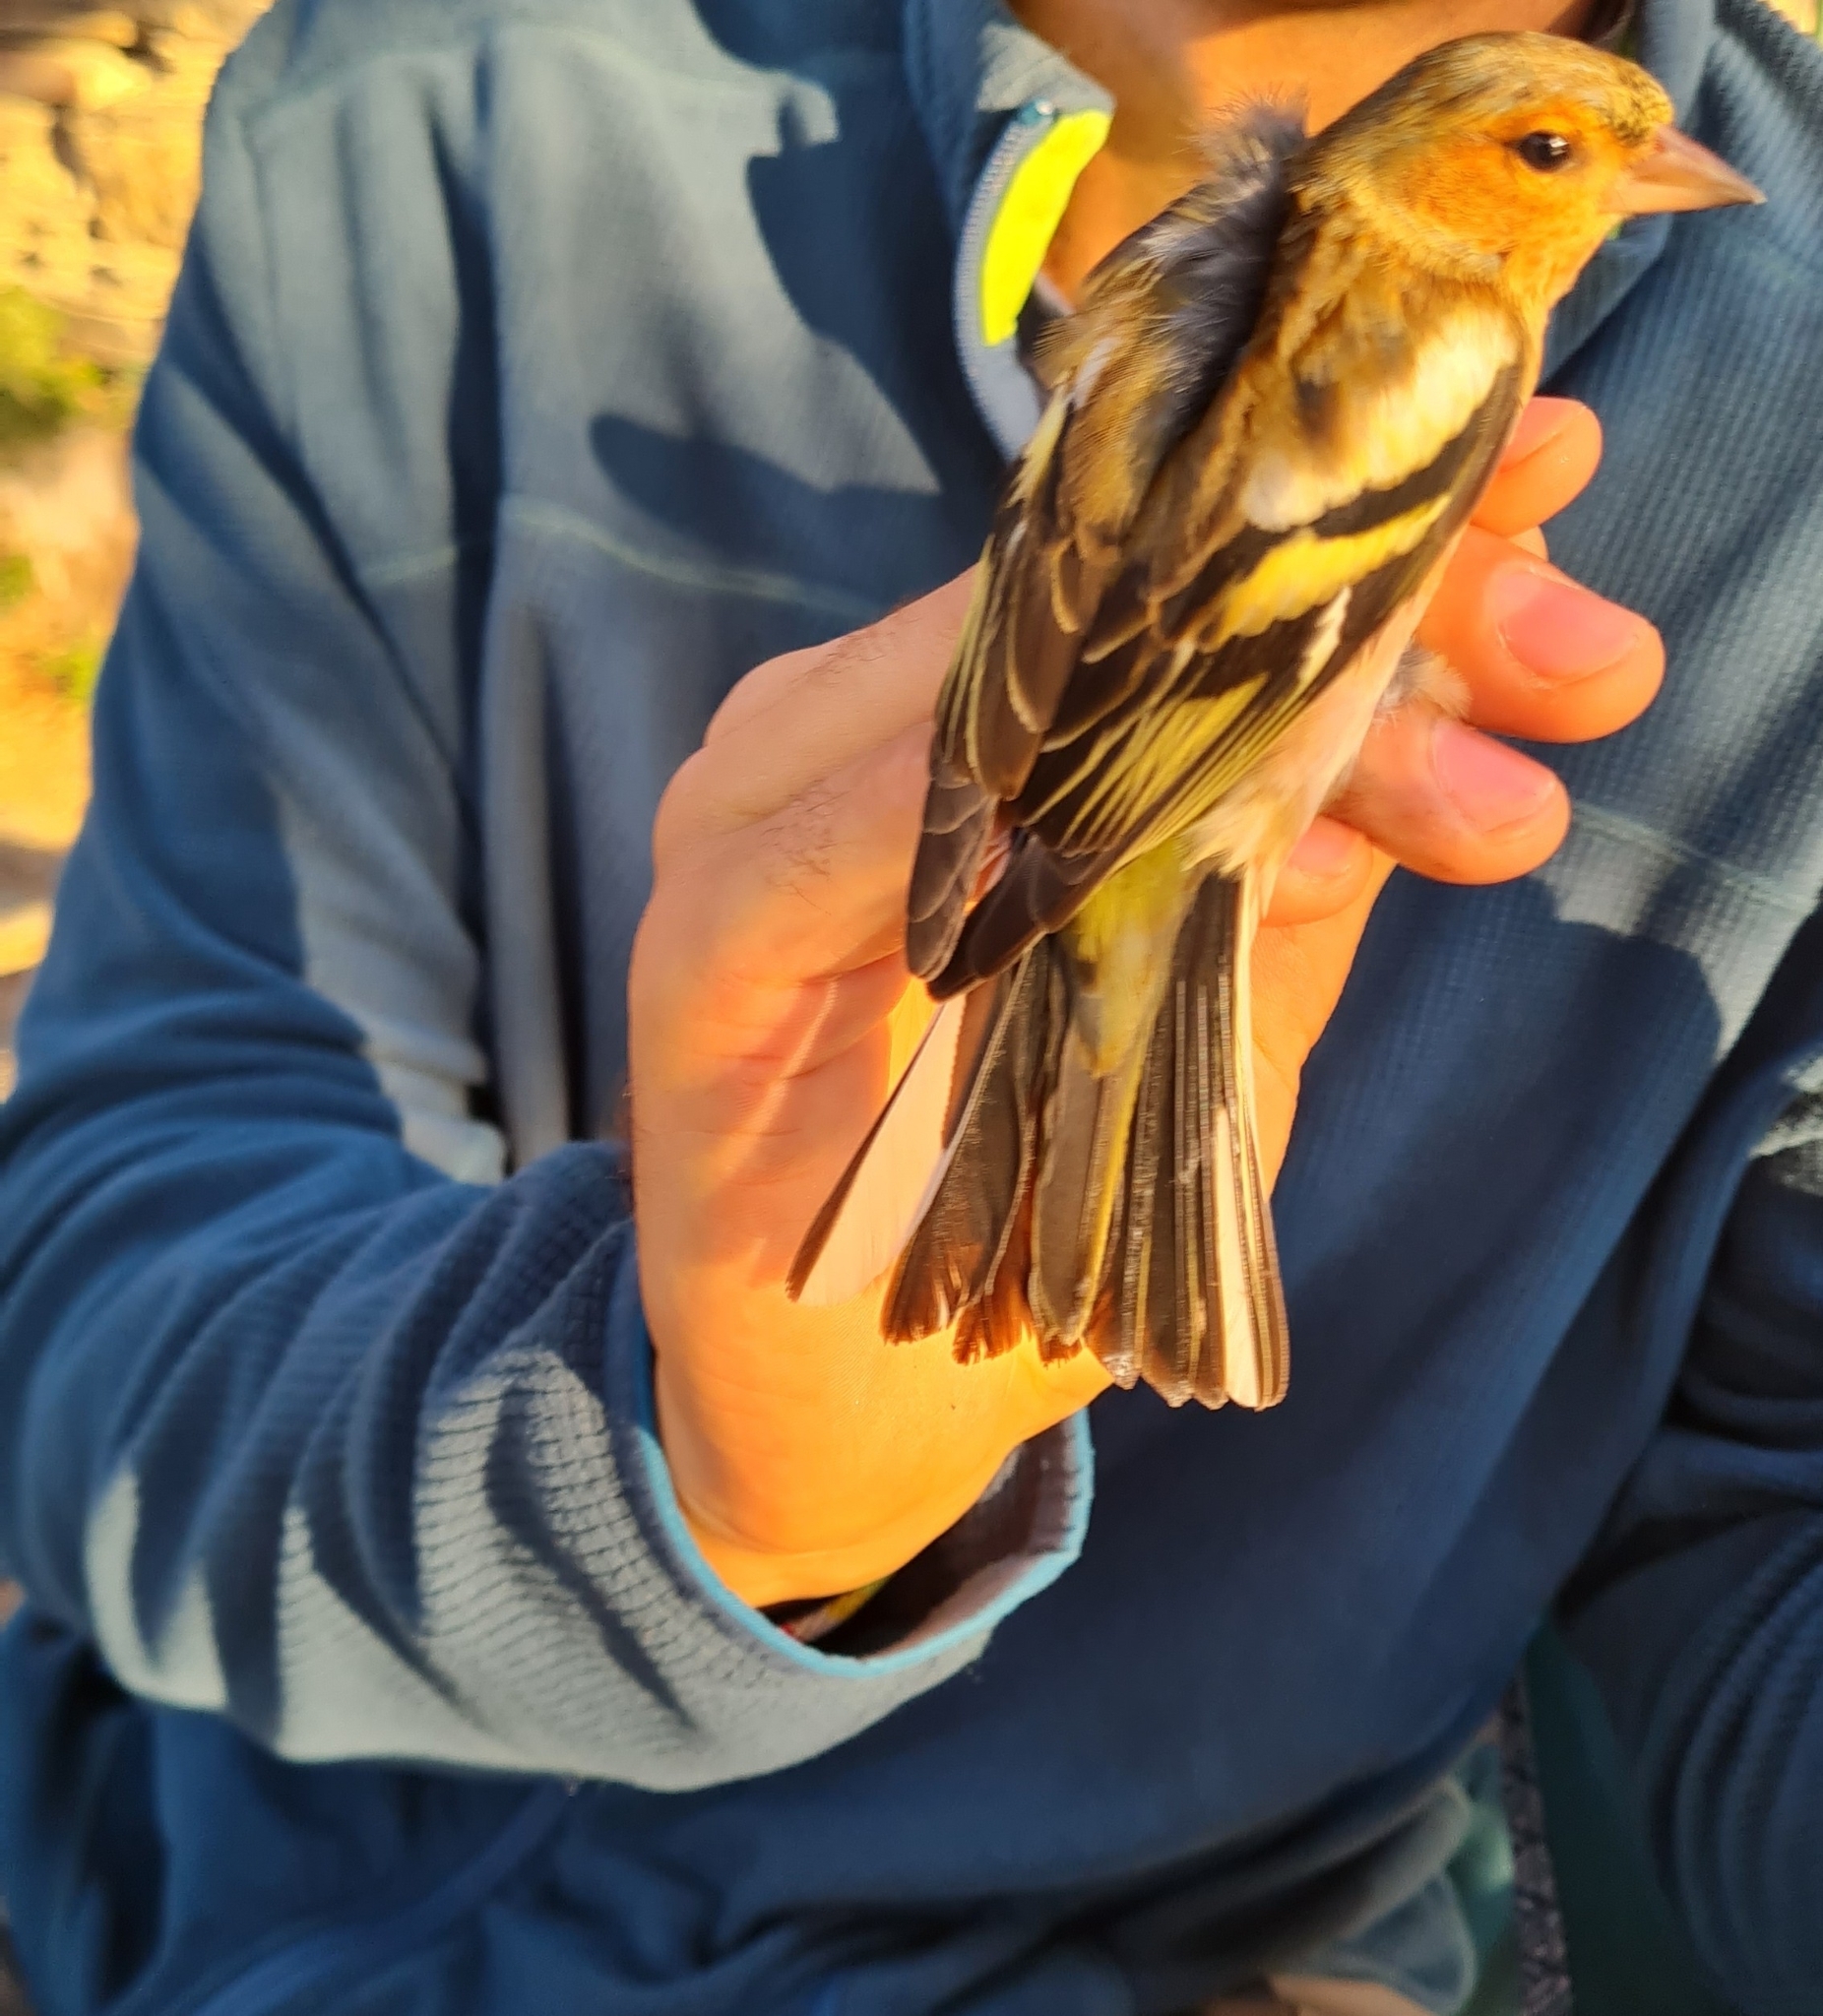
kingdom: Animalia
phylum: Chordata
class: Aves
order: Passeriformes
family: Fringillidae
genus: Fringilla
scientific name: Fringilla coelebs
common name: Common chaffinch
